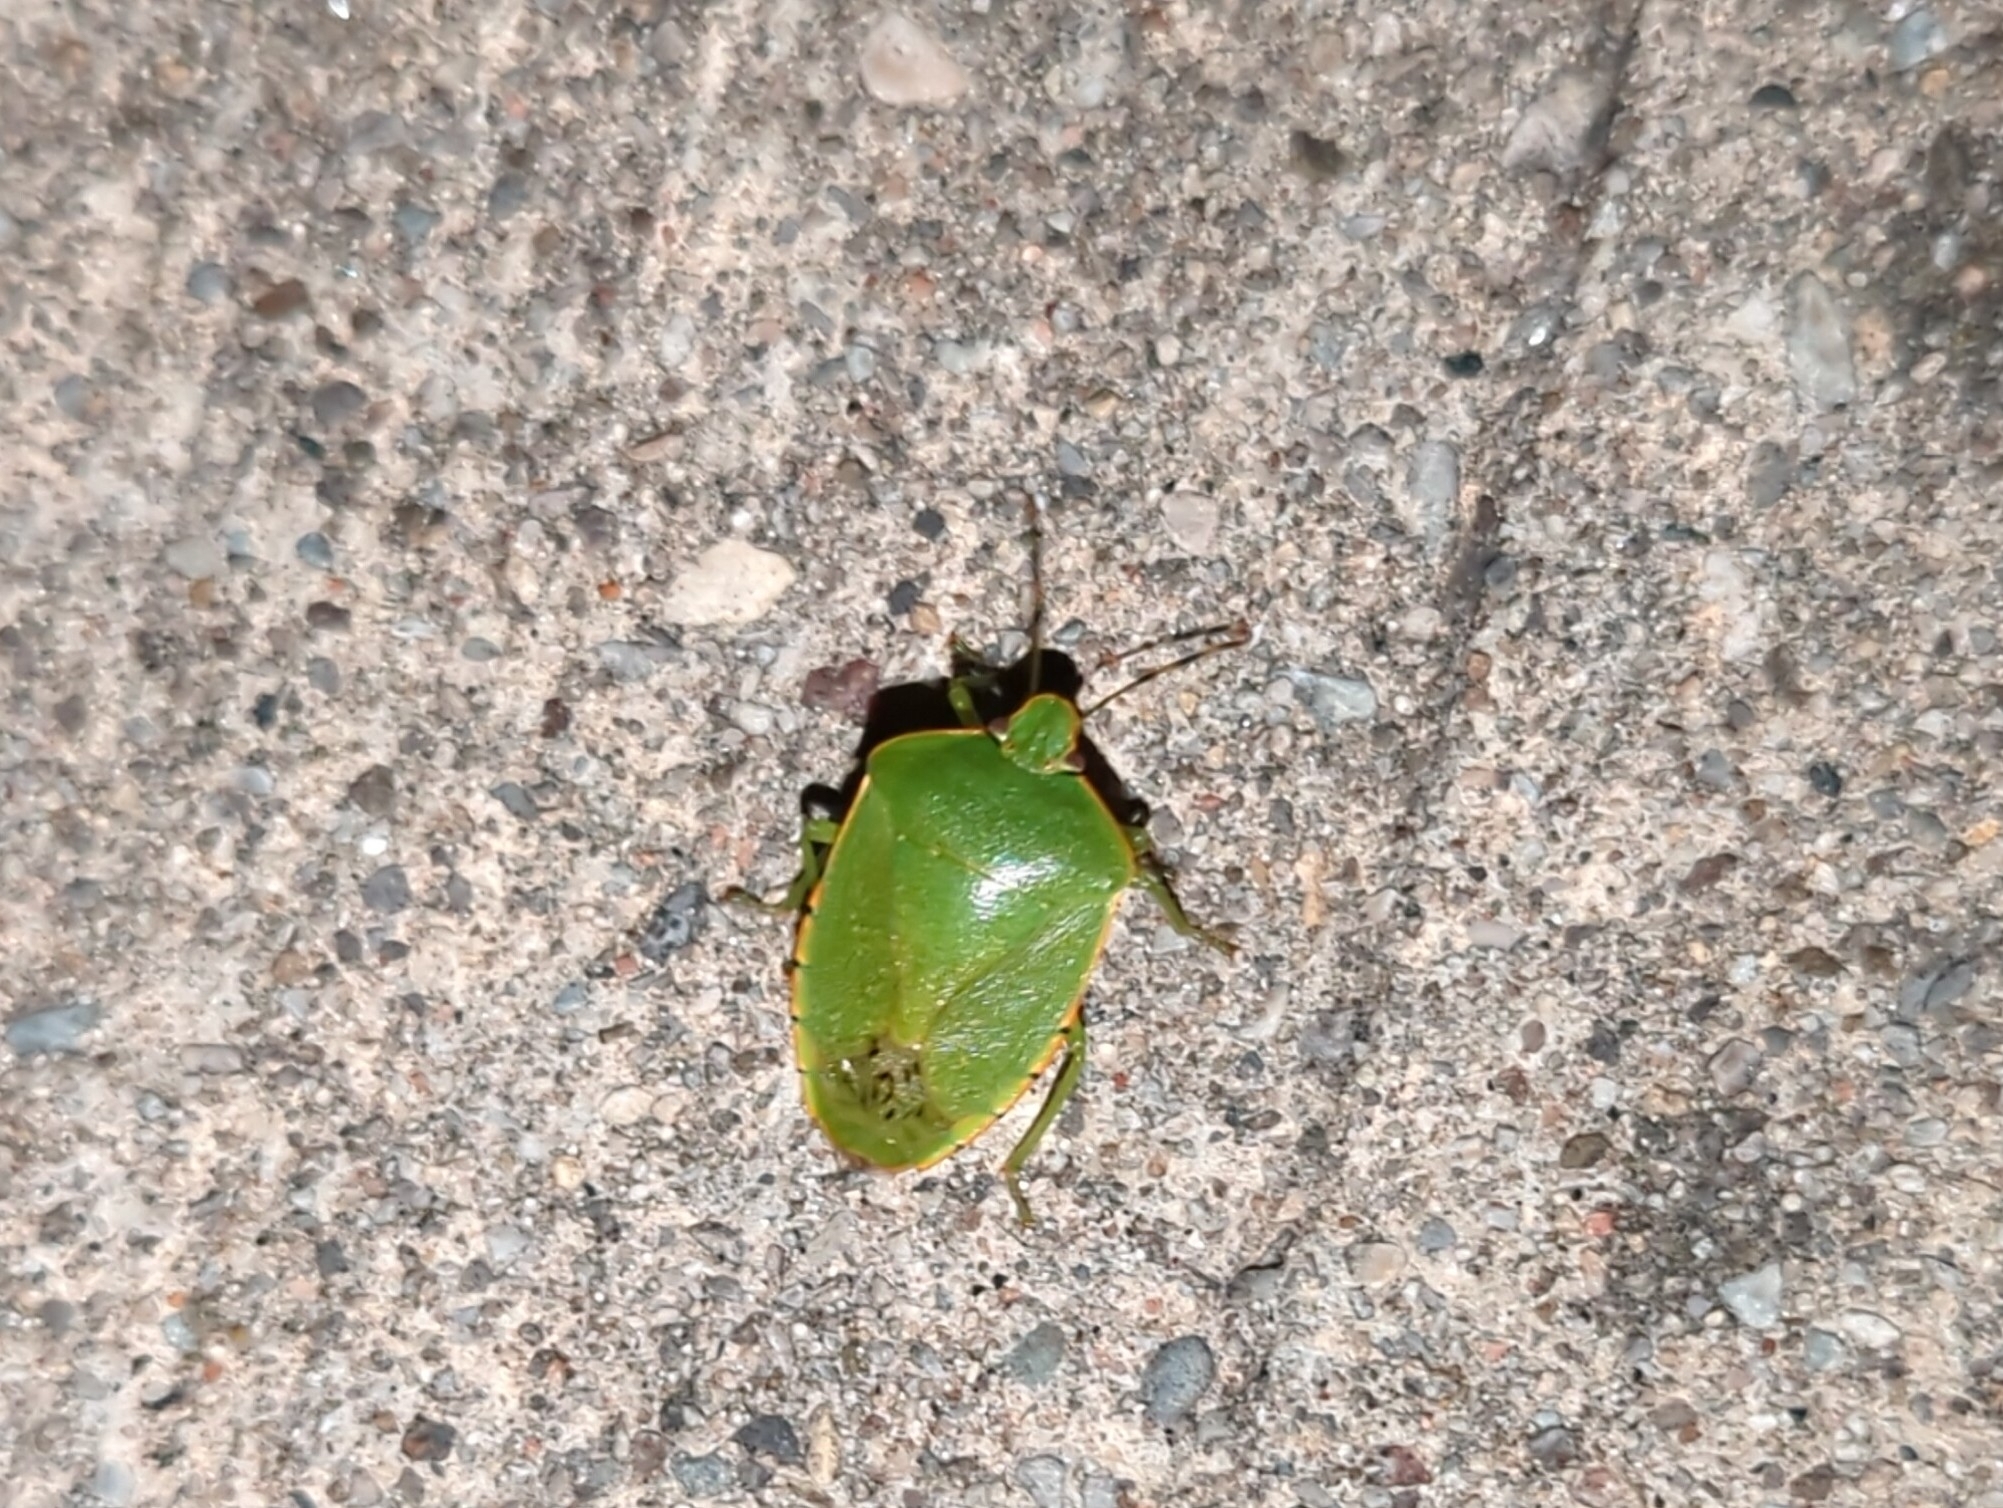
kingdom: Animalia
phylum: Arthropoda
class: Insecta
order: Hemiptera
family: Pentatomidae
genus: Chinavia
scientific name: Chinavia hilaris
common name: Green stink bug
